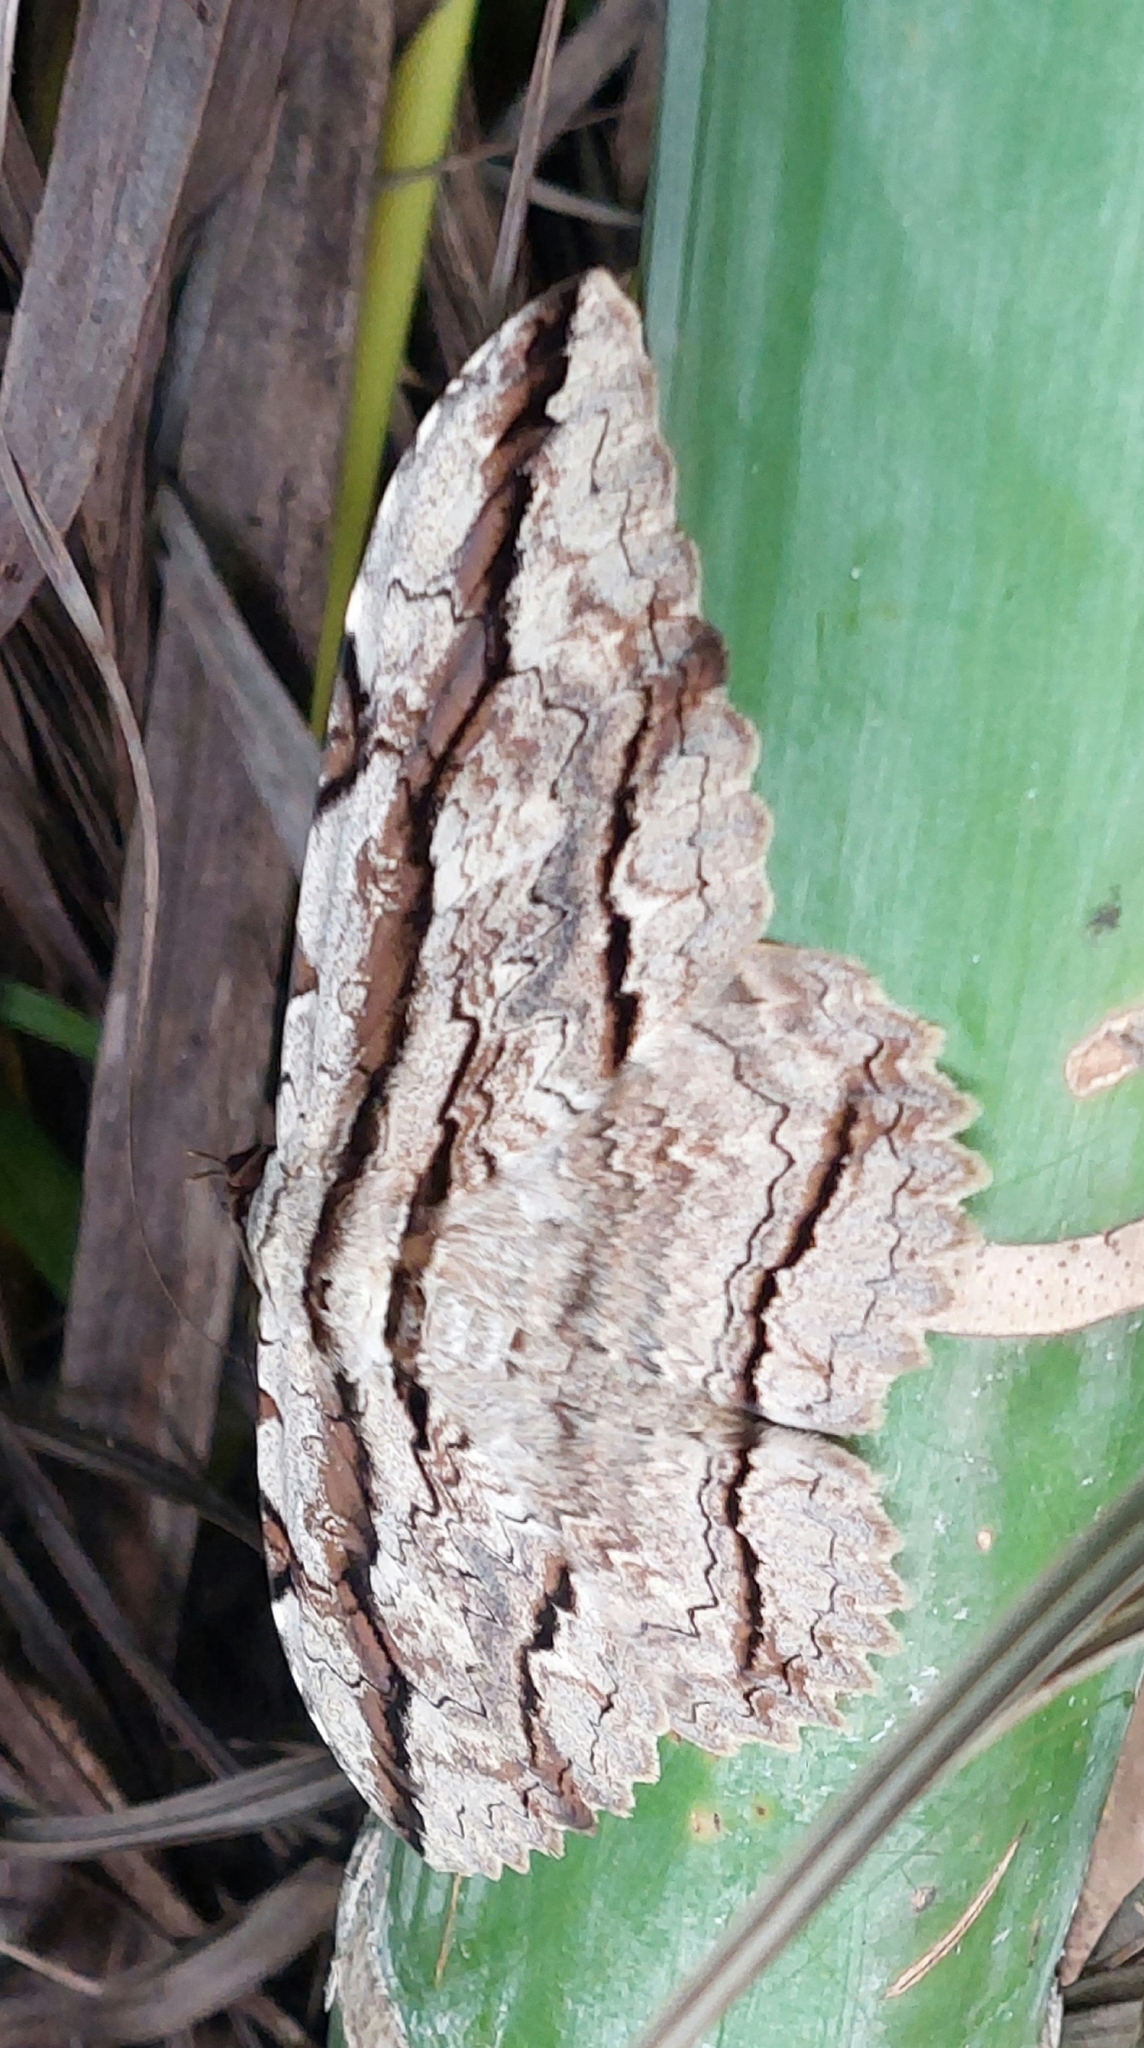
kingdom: Animalia
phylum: Arthropoda
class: Insecta
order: Lepidoptera
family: Erebidae
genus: Thysania
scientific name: Thysania zenobia
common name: Owl moth
